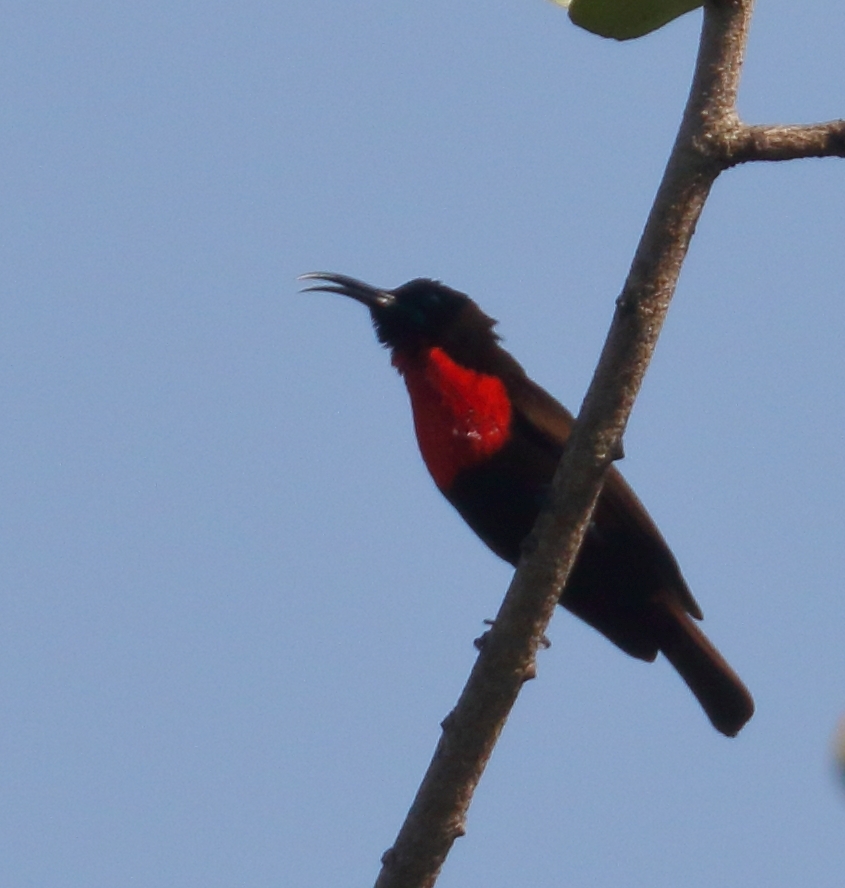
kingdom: Animalia
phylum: Chordata
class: Aves
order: Passeriformes
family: Nectariniidae
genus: Chalcomitra
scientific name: Chalcomitra senegalensis
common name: Scarlet-chested sunbird
